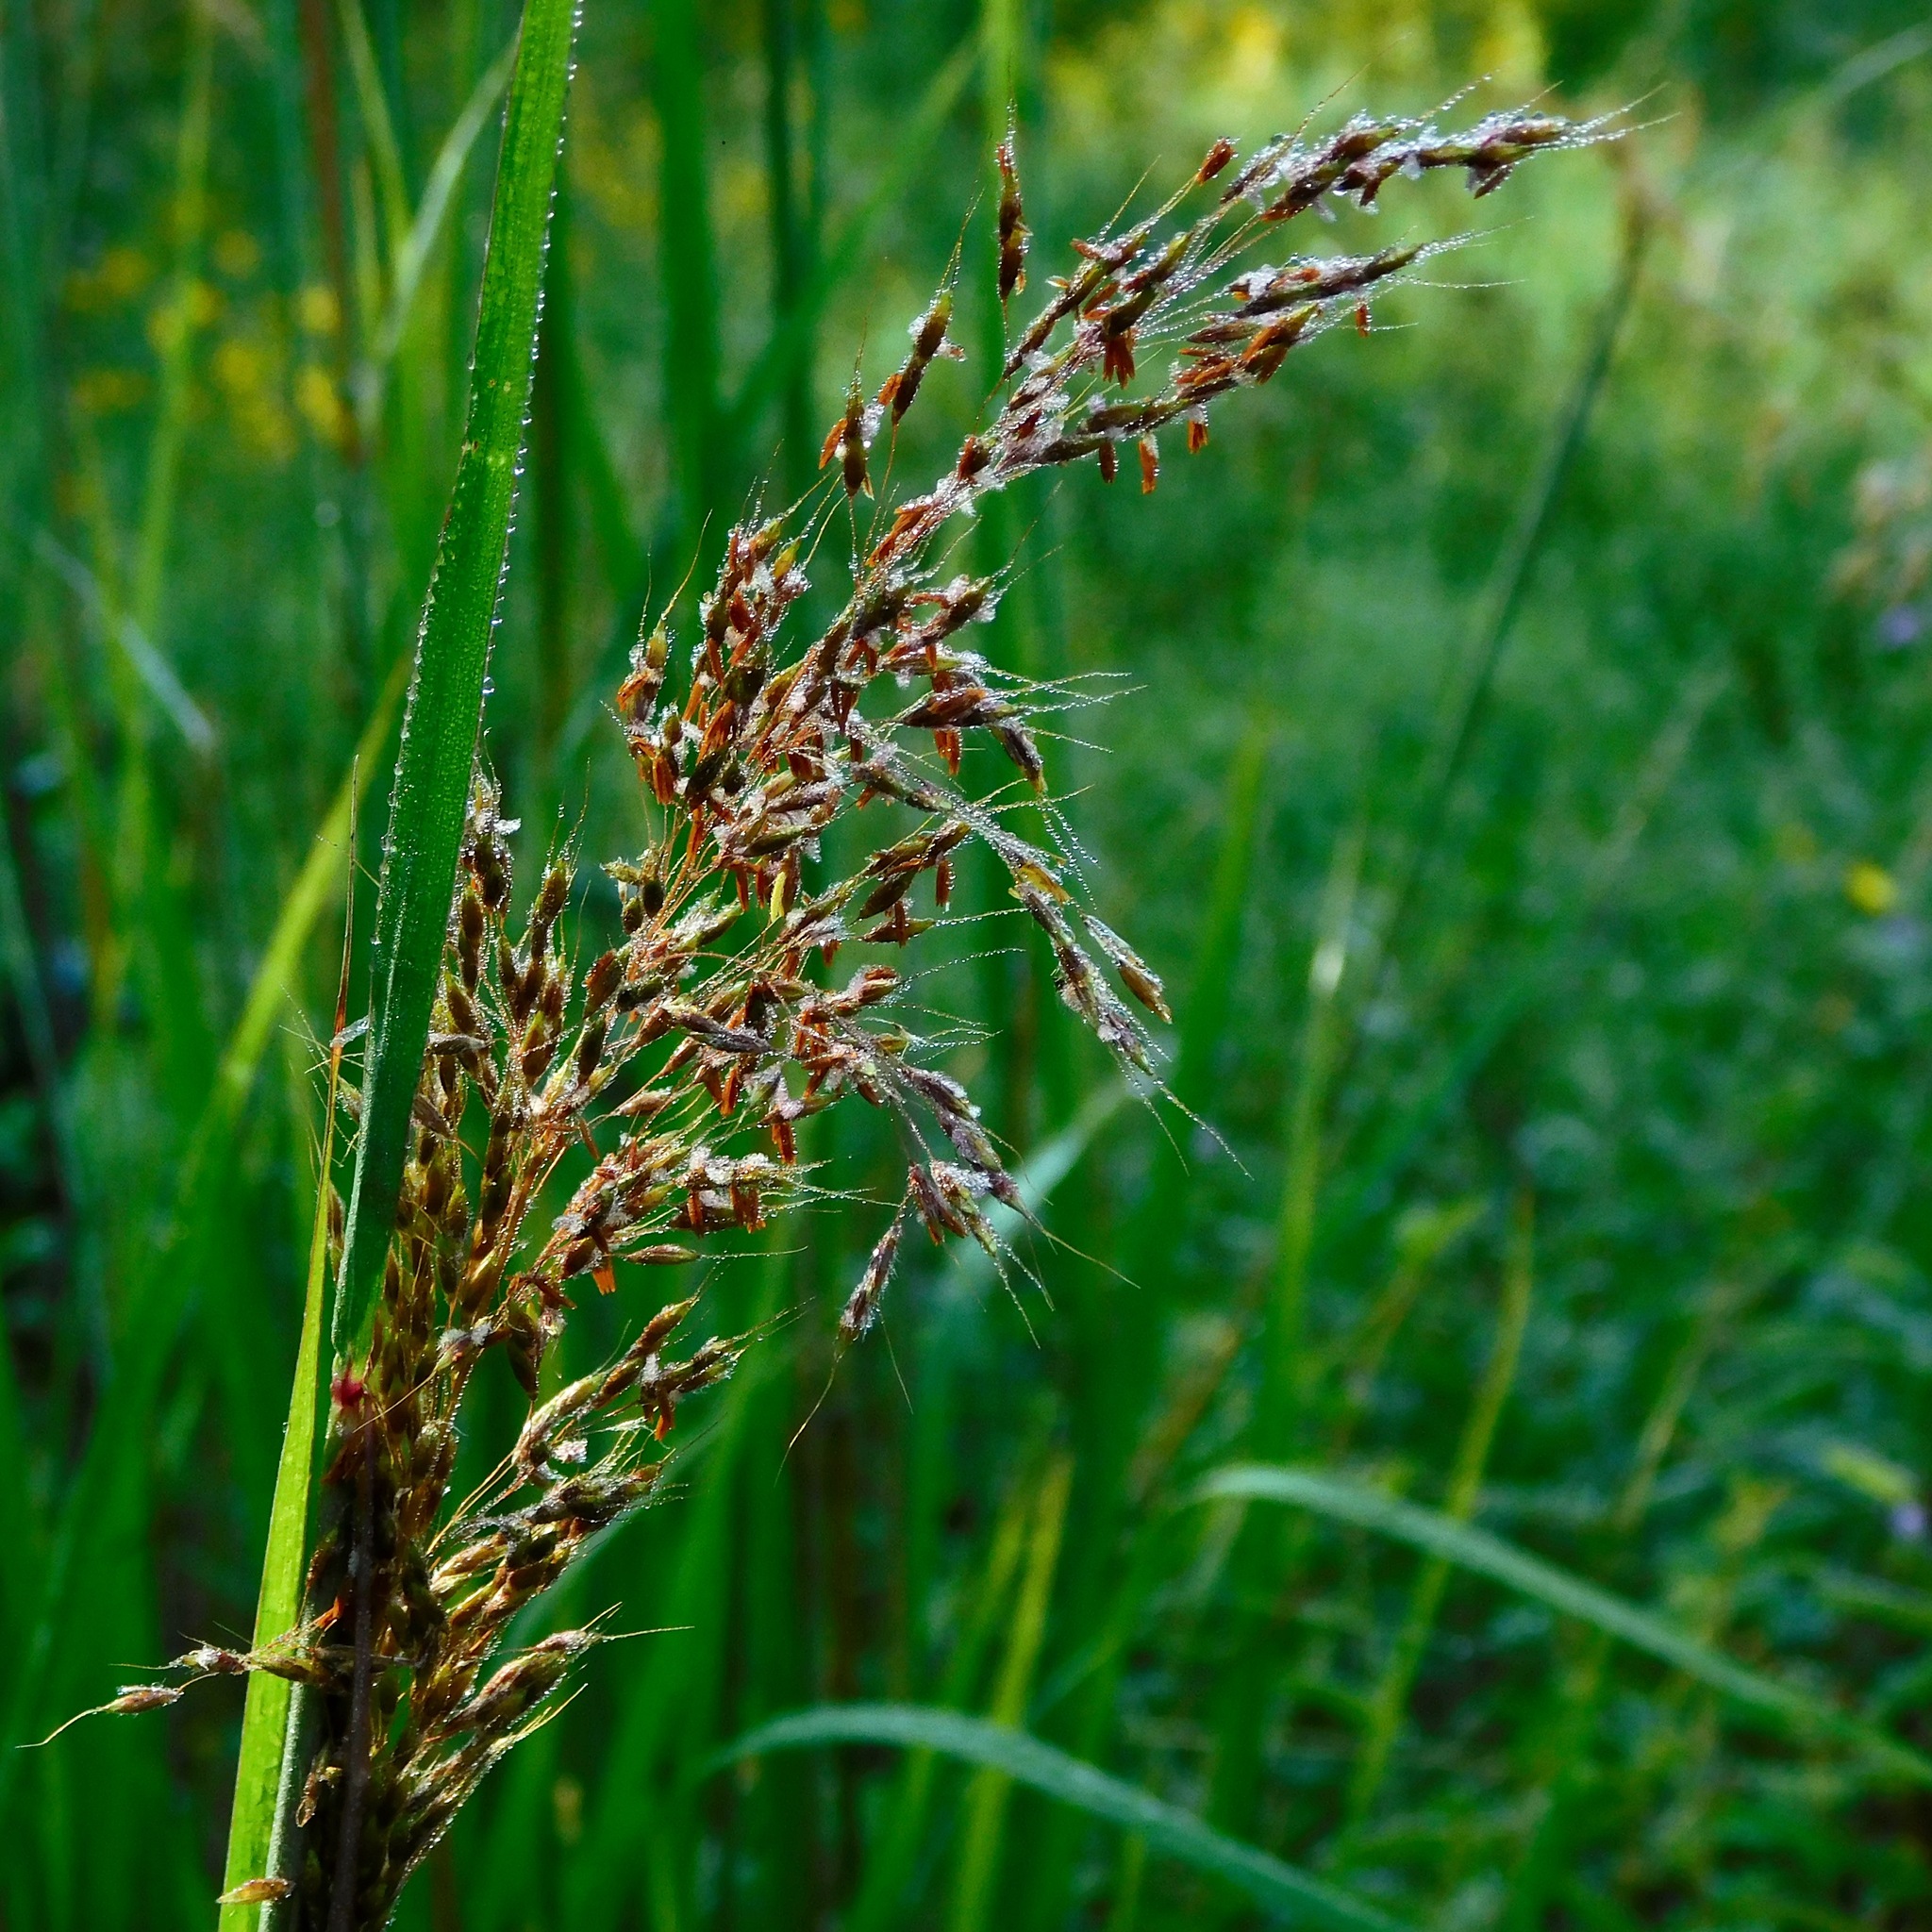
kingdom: Plantae
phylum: Tracheophyta
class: Liliopsida
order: Poales
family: Poaceae
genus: Sorghastrum
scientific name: Sorghastrum nutans
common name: Indian grass
